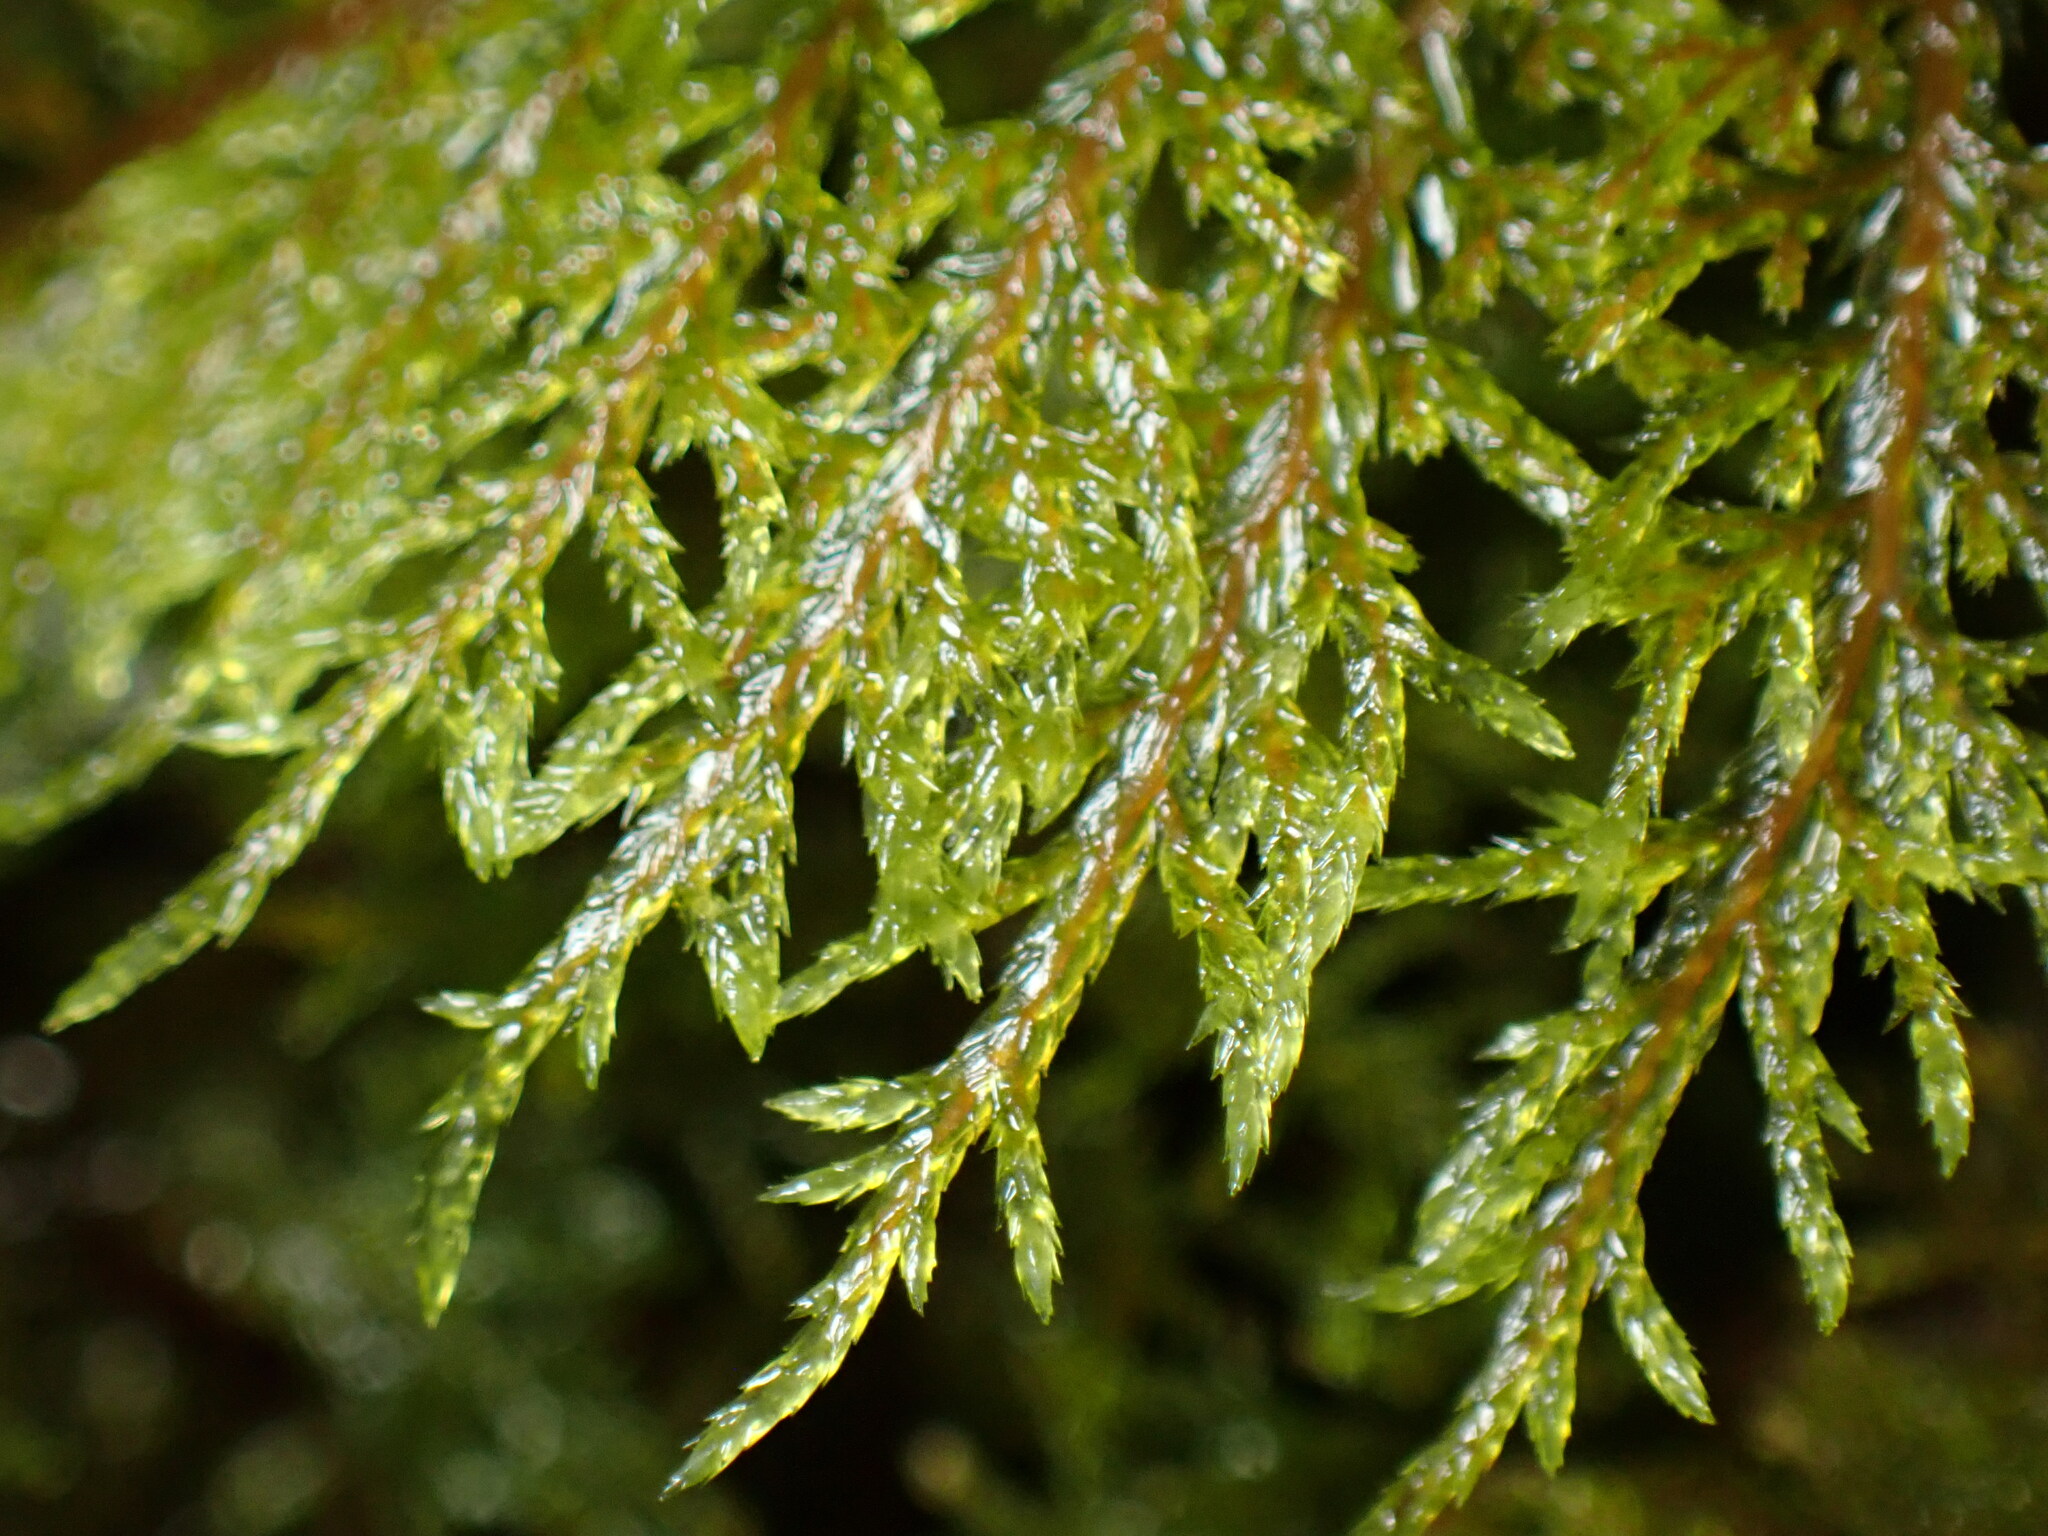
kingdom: Plantae
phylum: Bryophyta
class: Bryopsida
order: Hypnales
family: Hylocomiaceae
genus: Hylocomium
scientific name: Hylocomium splendens
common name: Stairstep moss
